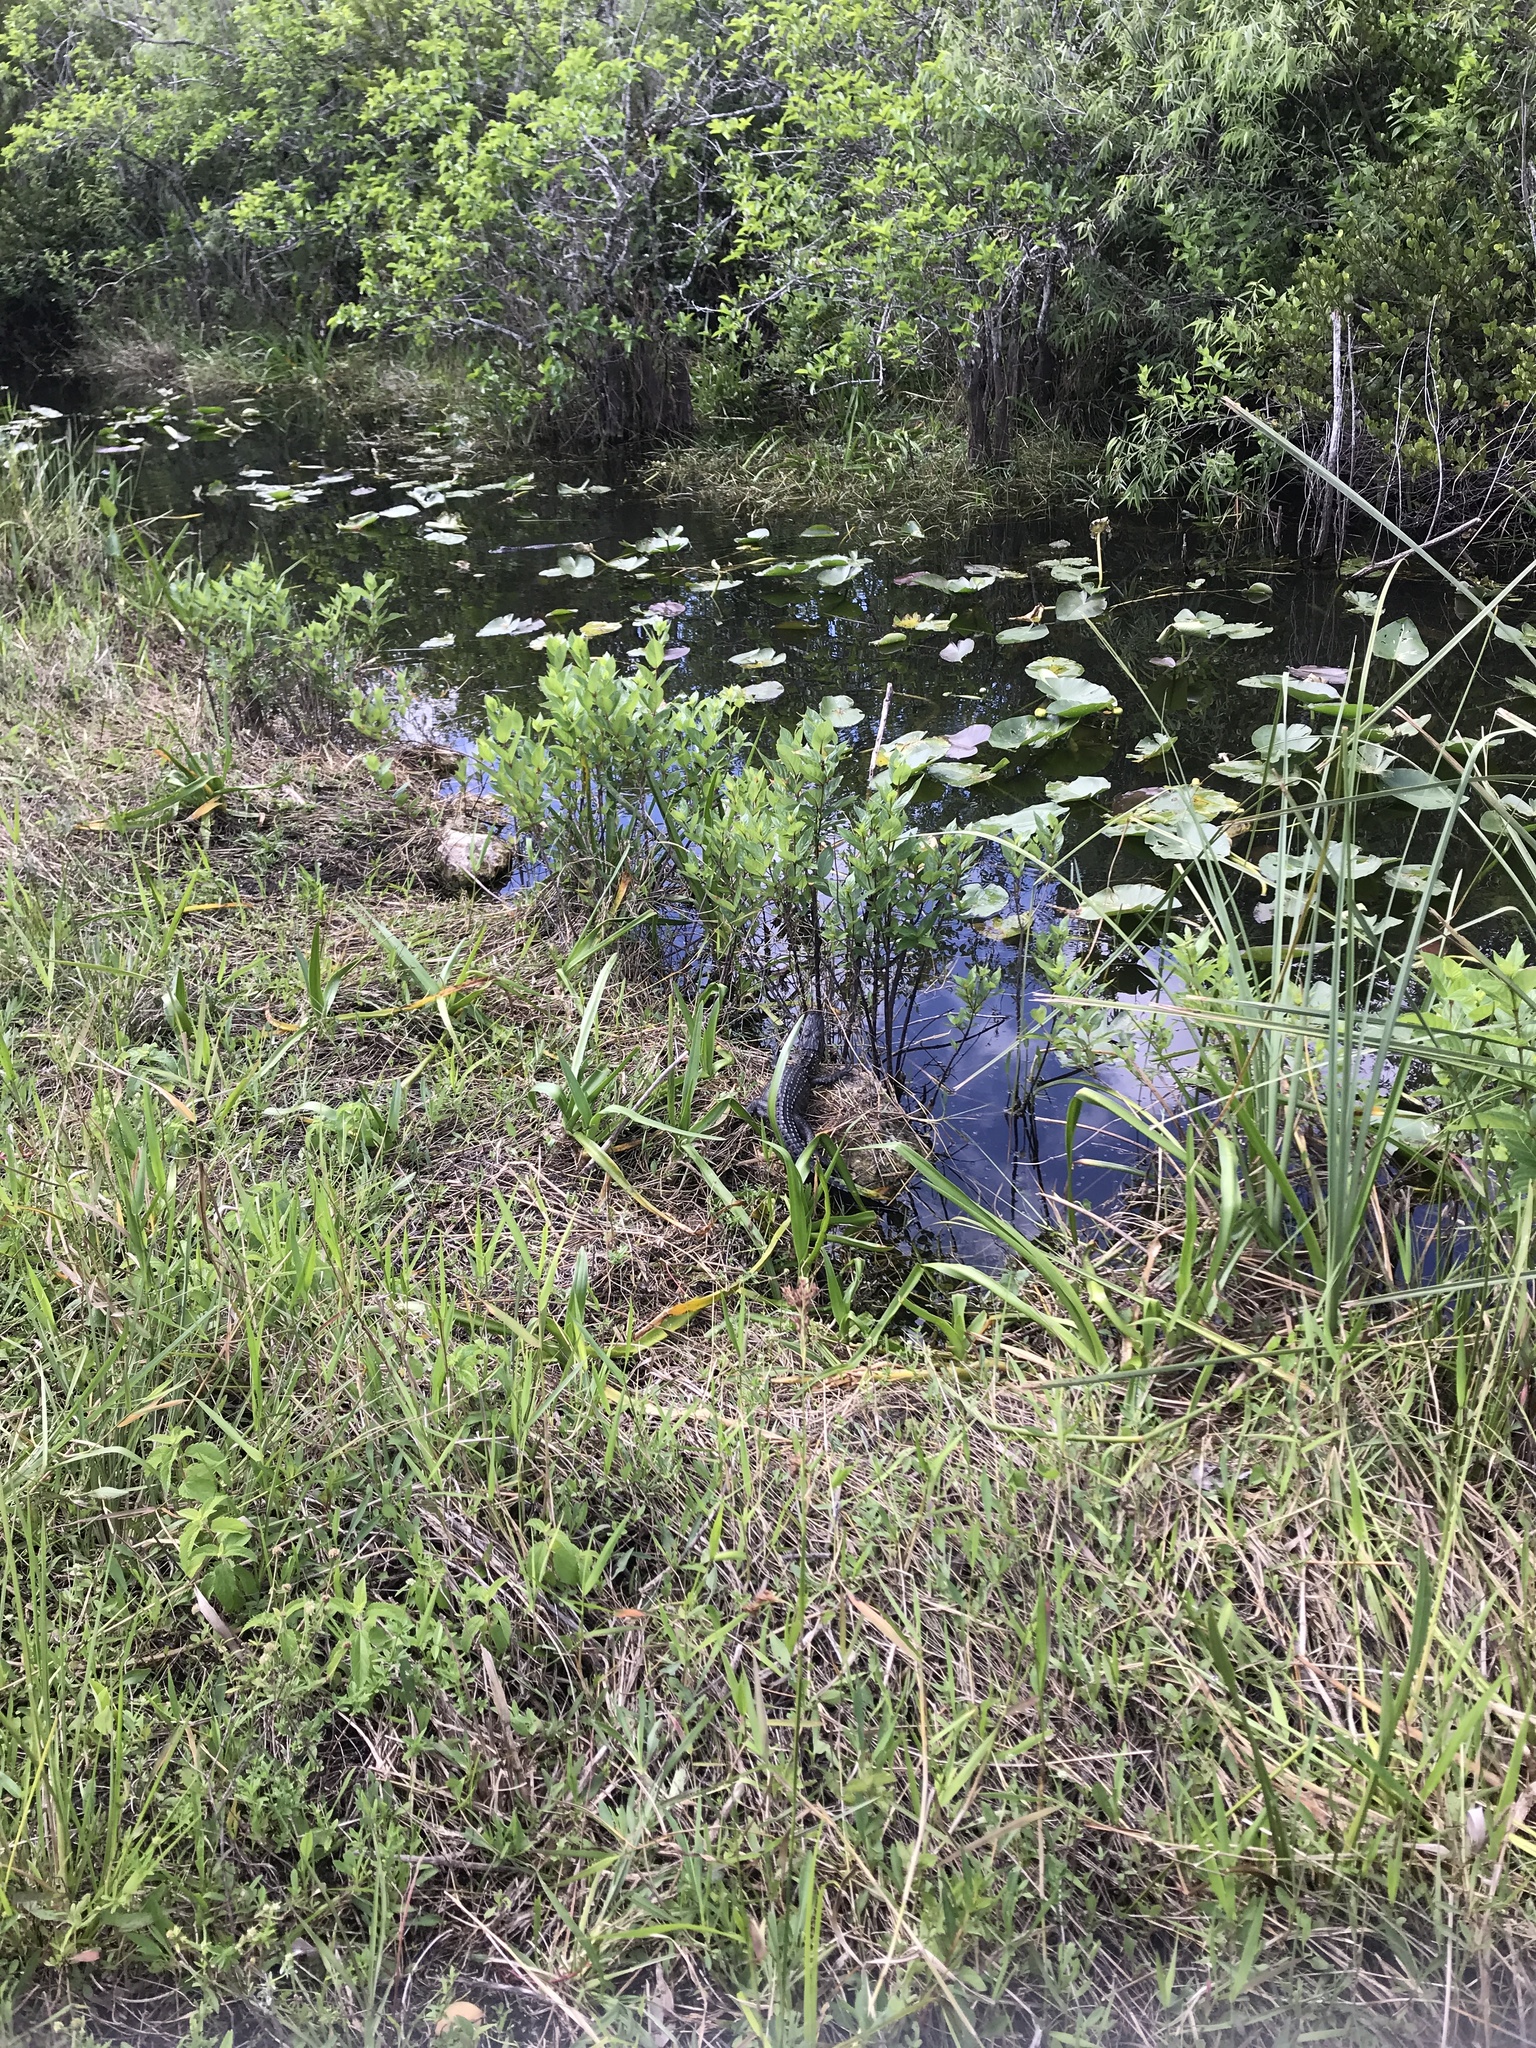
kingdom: Animalia
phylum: Chordata
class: Crocodylia
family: Alligatoridae
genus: Alligator
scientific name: Alligator mississippiensis
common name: American alligator
